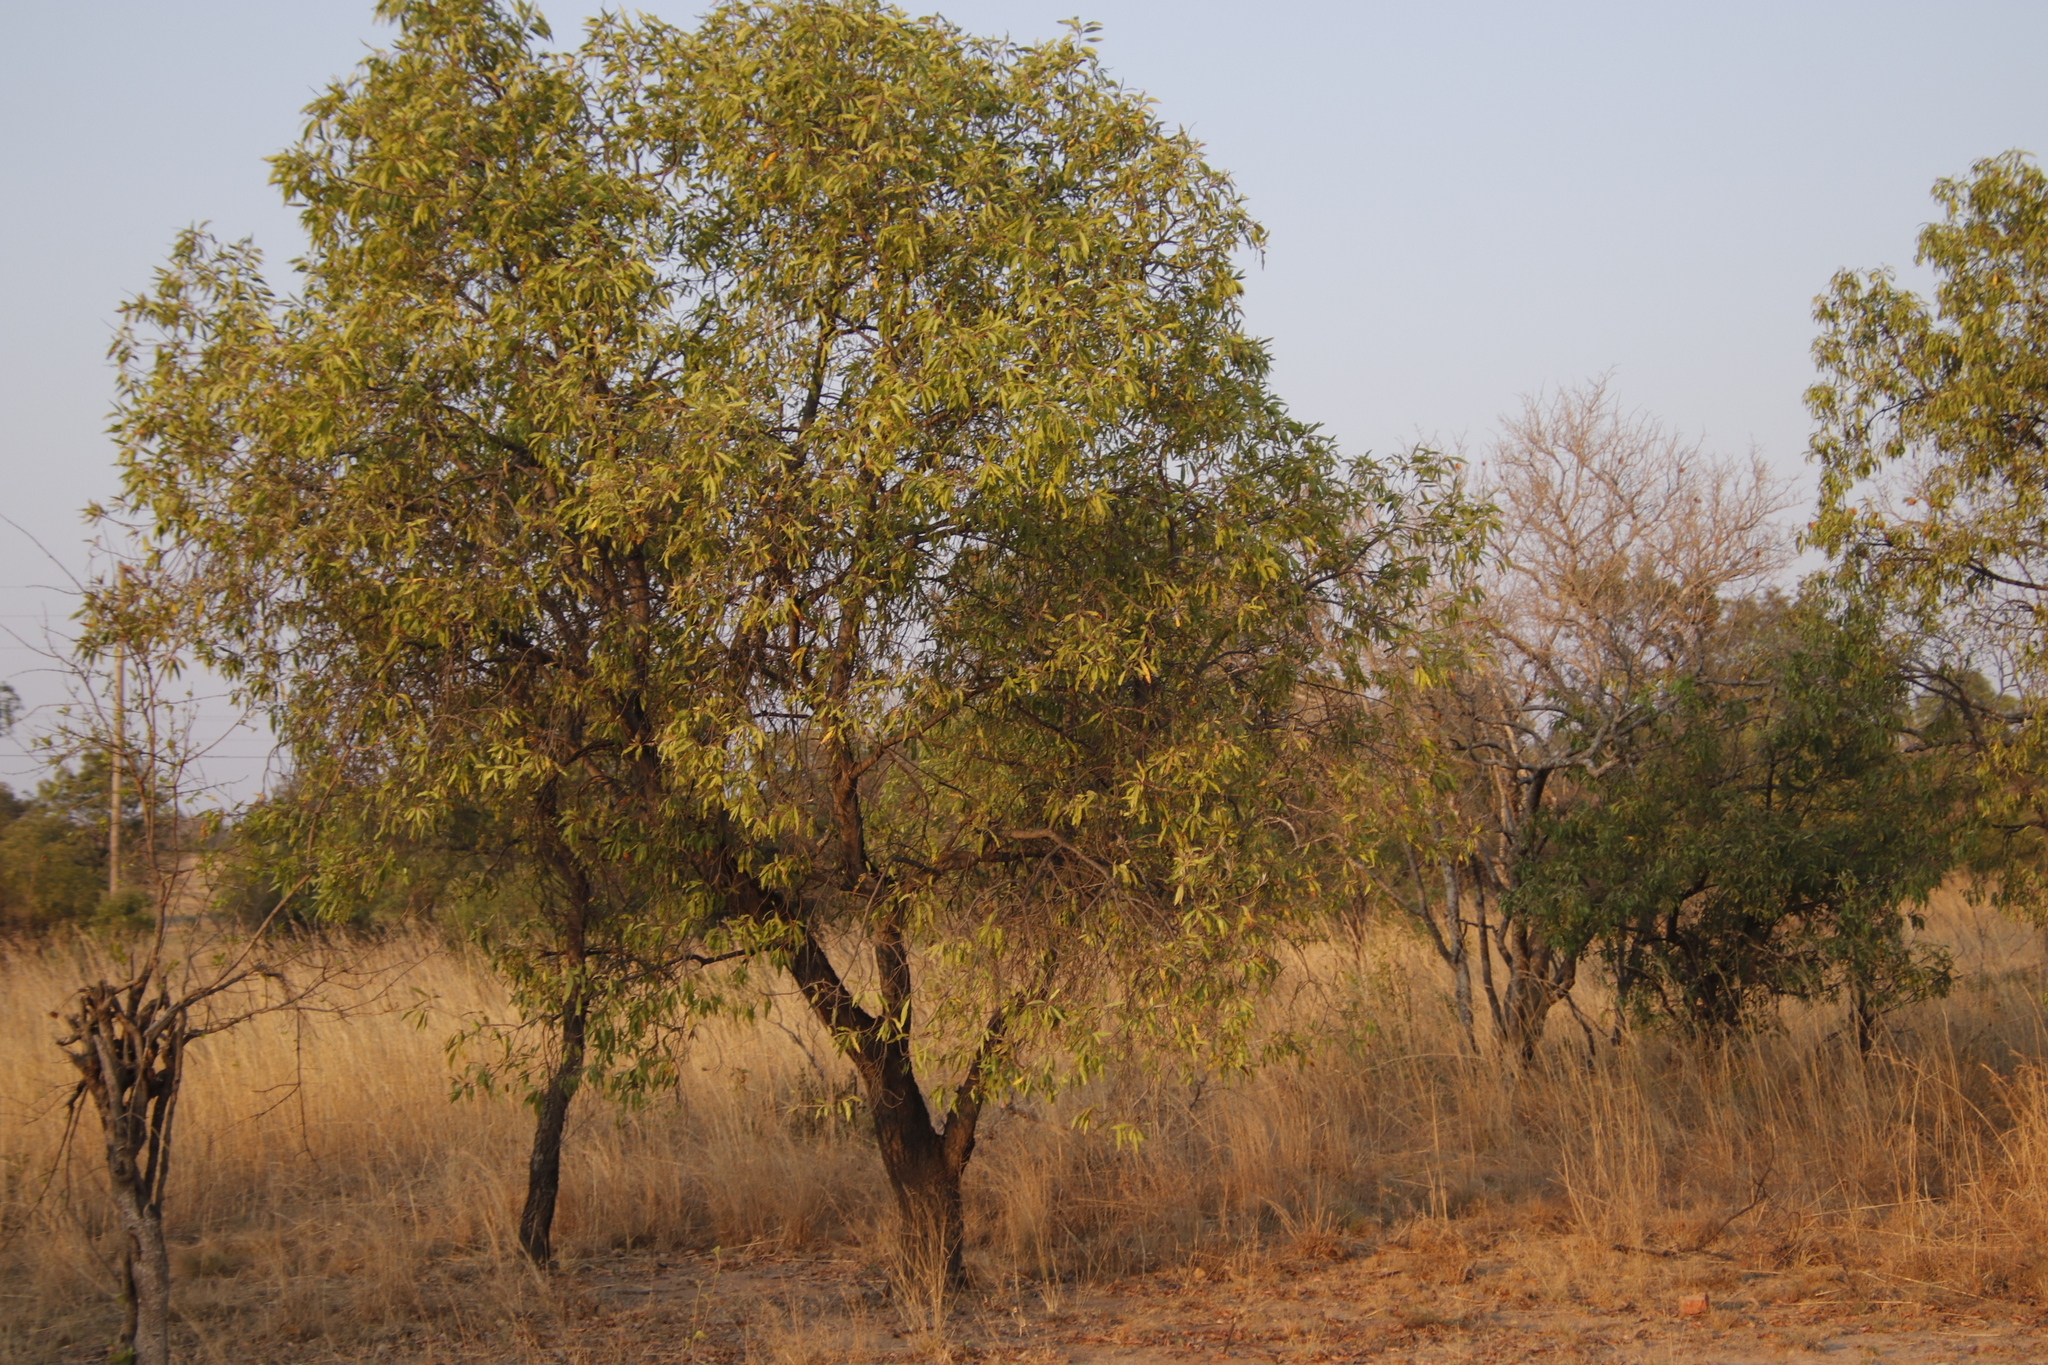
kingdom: Plantae
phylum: Tracheophyta
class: Magnoliopsida
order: Proteales
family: Proteaceae
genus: Faurea
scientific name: Faurea saligna
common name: African bean
